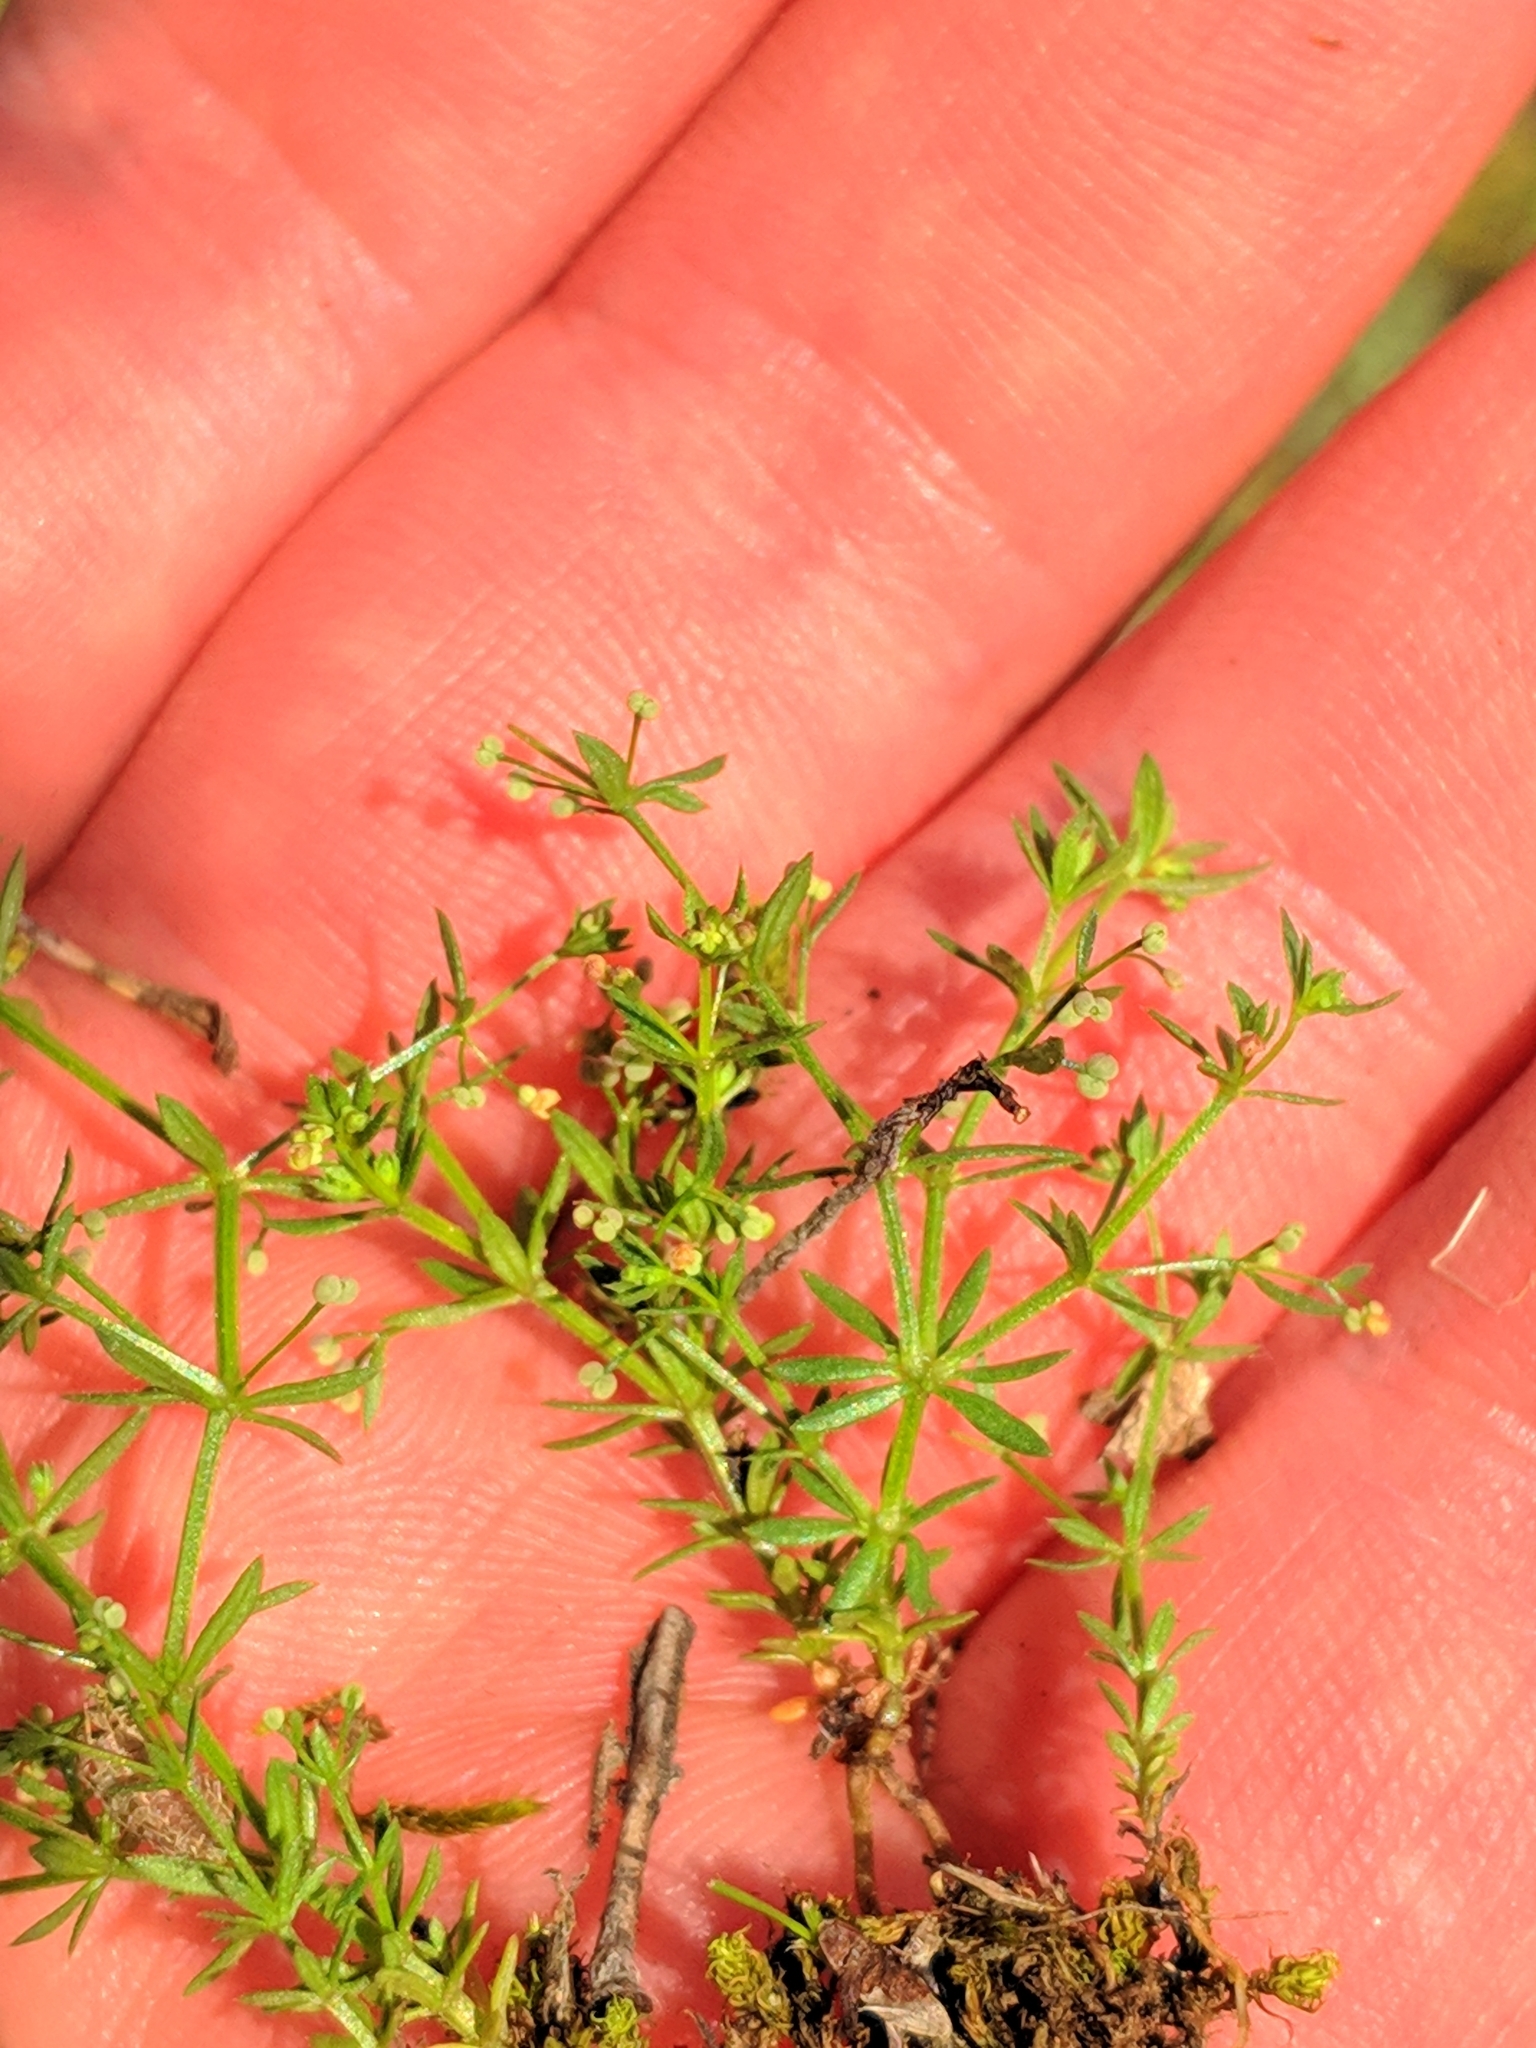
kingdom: Plantae
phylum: Tracheophyta
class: Magnoliopsida
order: Gentianales
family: Rubiaceae
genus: Galium
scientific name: Galium parisiense
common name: Wall bedstraw
